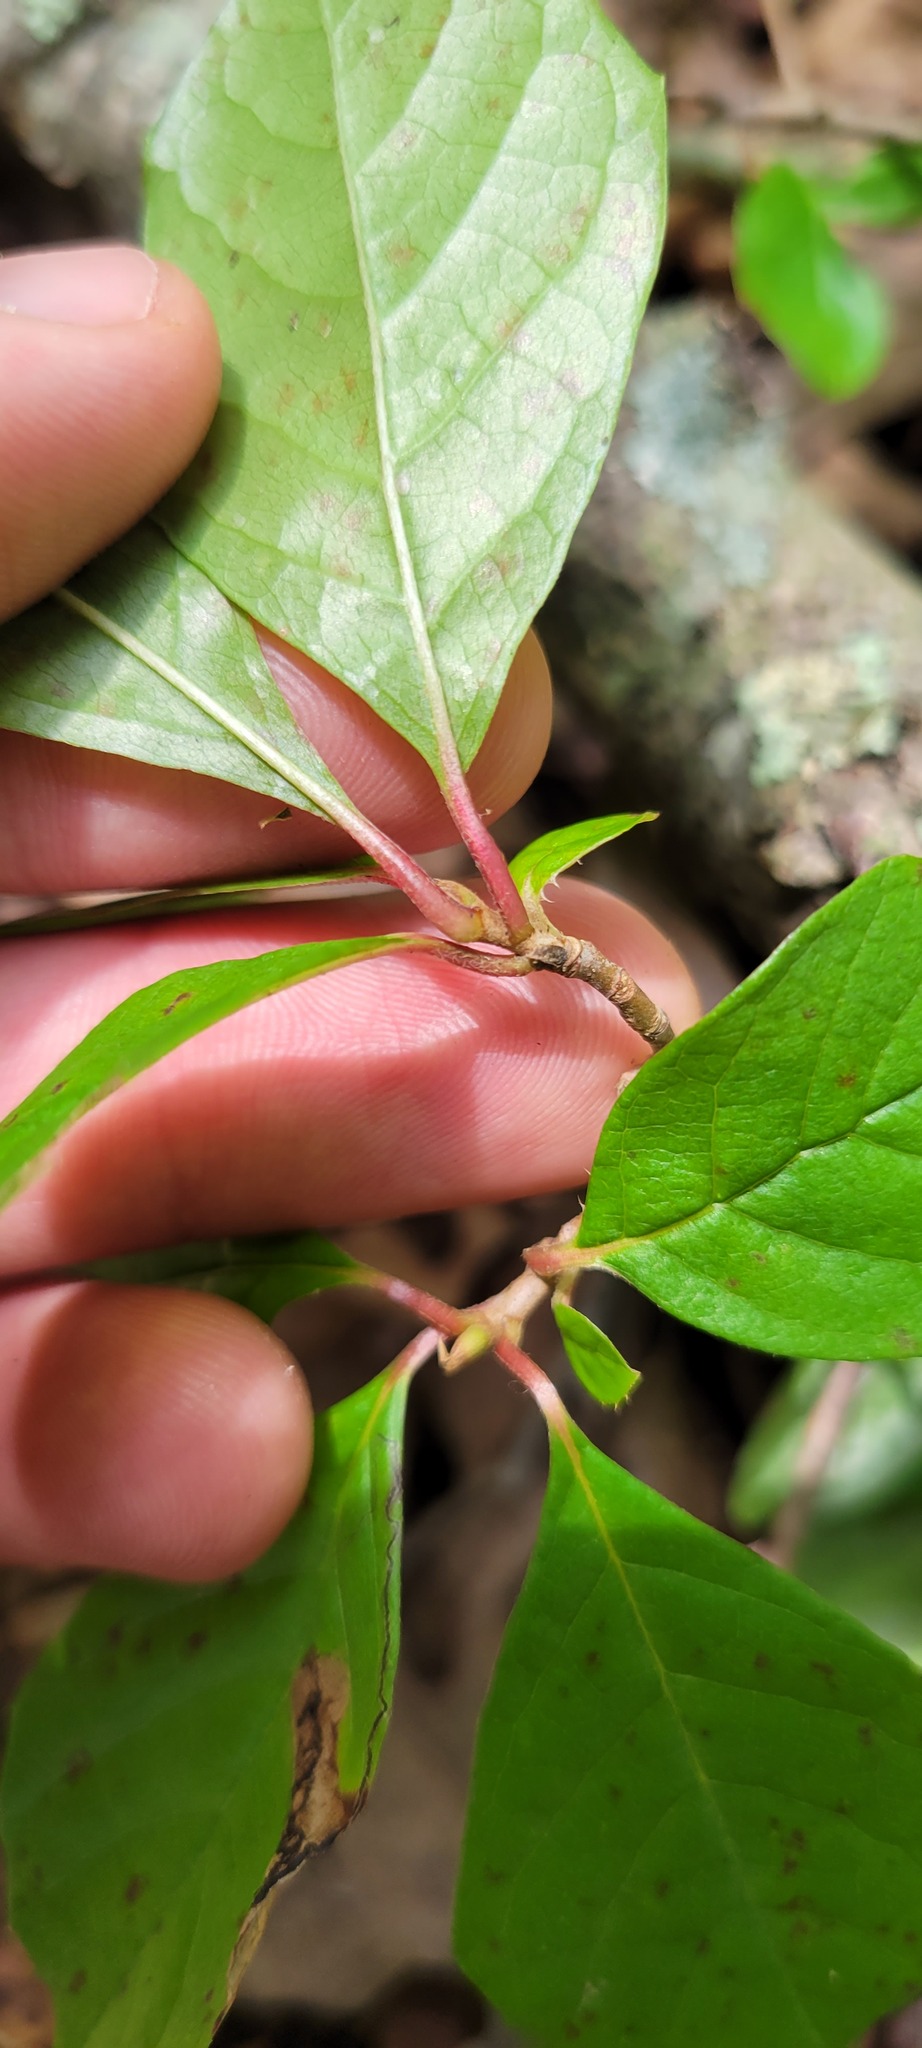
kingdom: Plantae
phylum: Tracheophyta
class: Magnoliopsida
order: Cornales
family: Nyssaceae
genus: Nyssa
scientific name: Nyssa sylvatica
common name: Black tupelo
